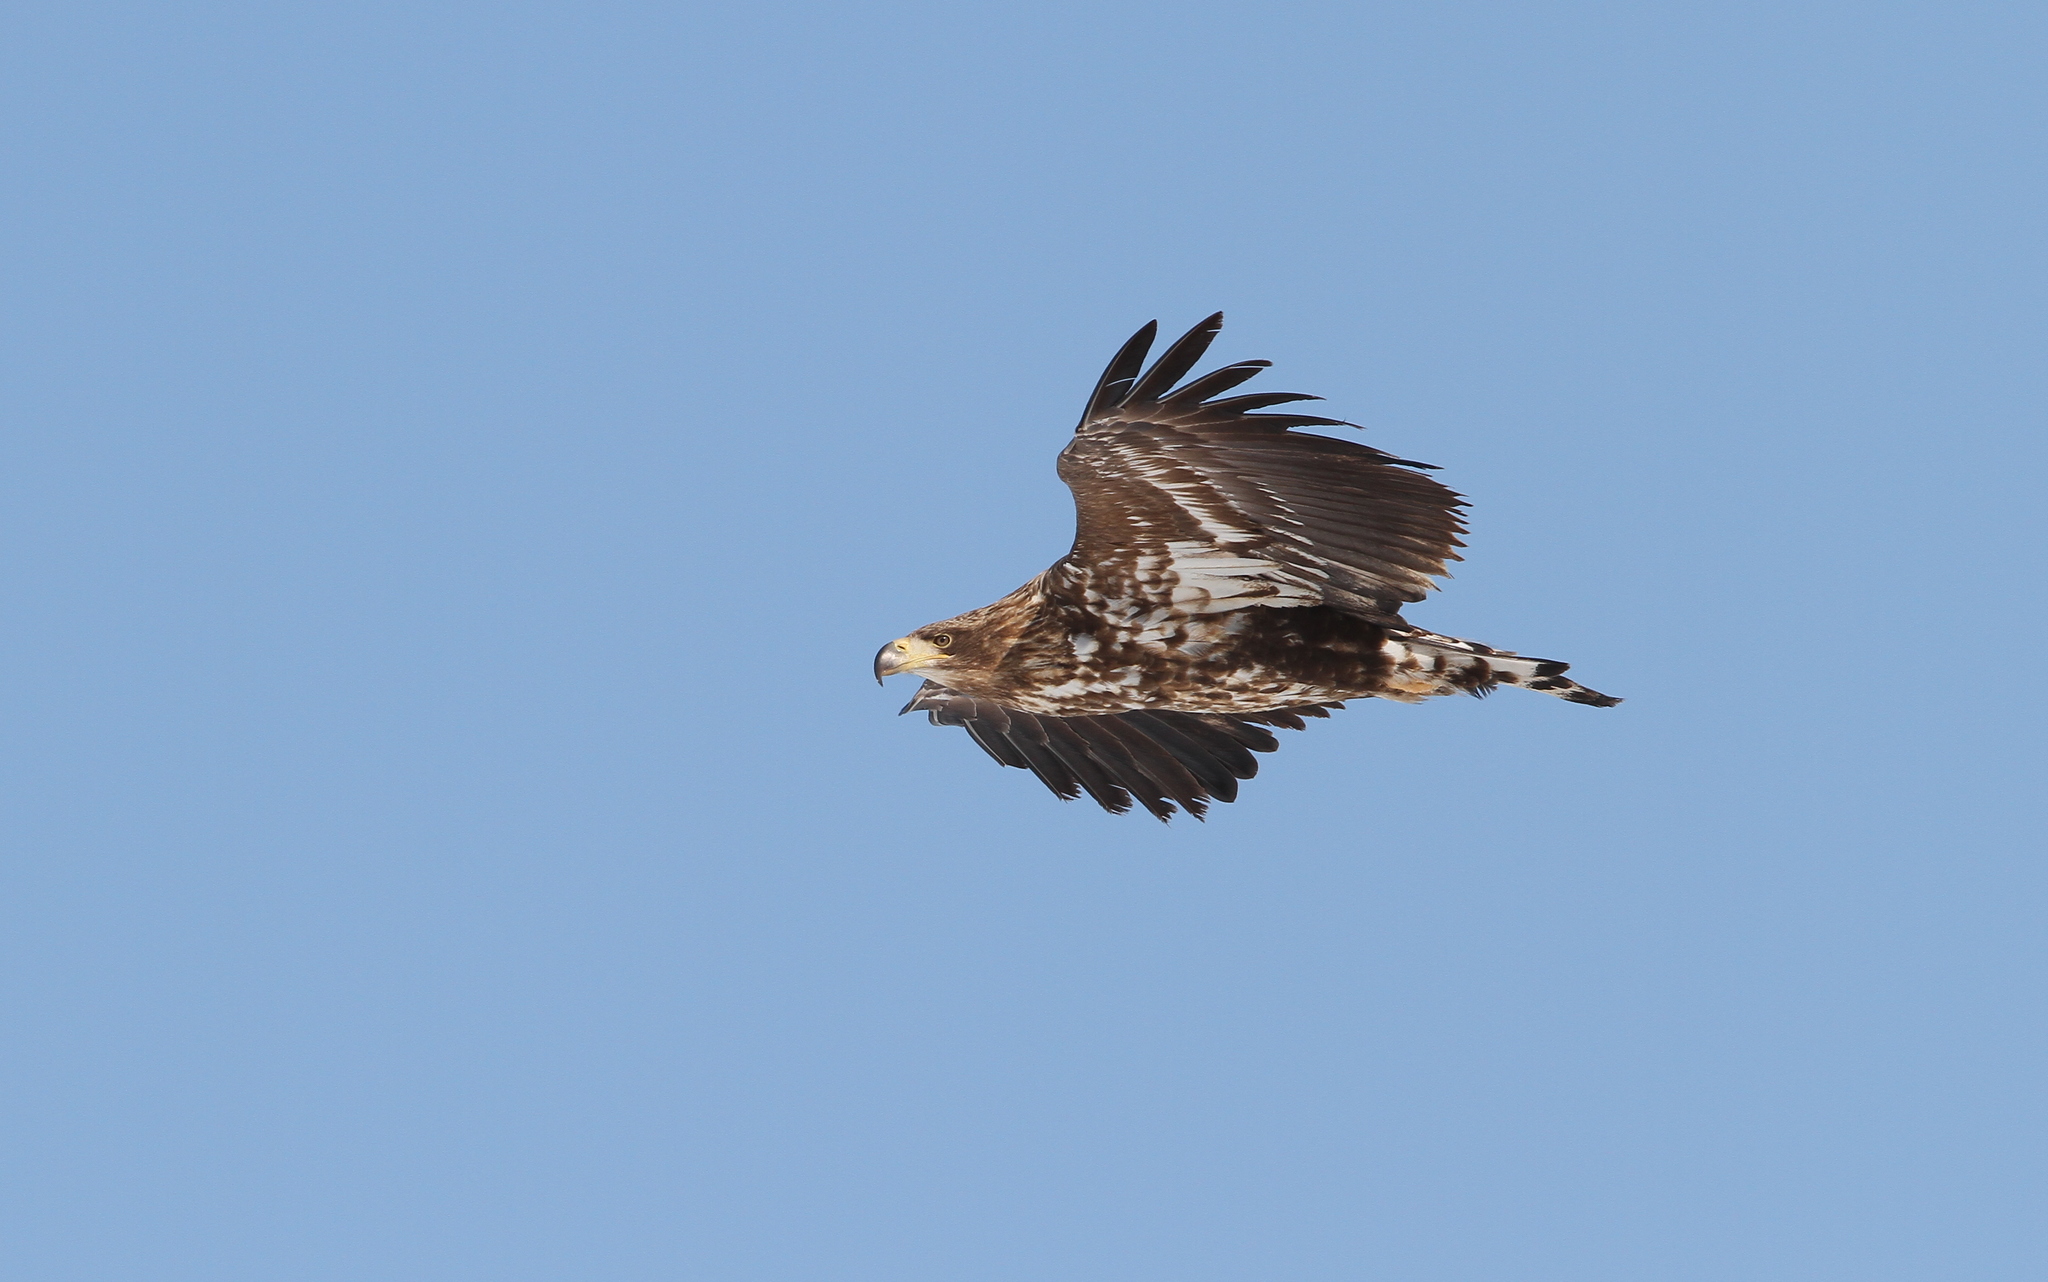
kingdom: Animalia
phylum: Chordata
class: Aves
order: Accipitriformes
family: Accipitridae
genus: Haliaeetus
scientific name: Haliaeetus albicilla
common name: White-tailed eagle
